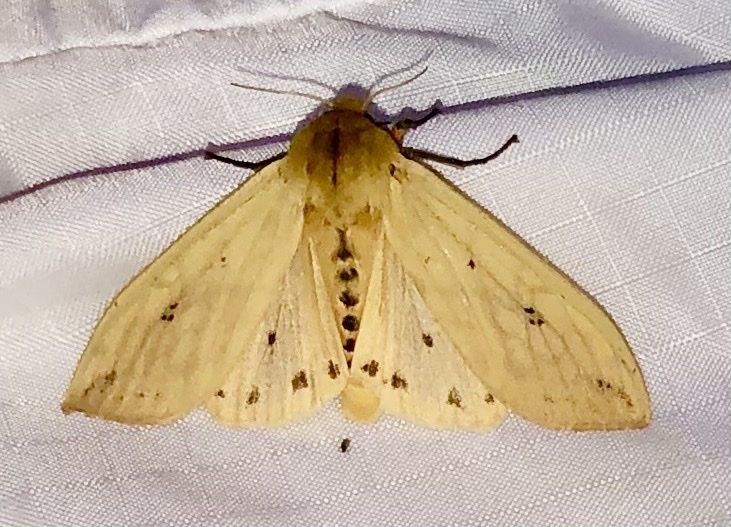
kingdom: Animalia
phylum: Arthropoda
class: Insecta
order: Lepidoptera
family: Erebidae
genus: Pyrrharctia
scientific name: Pyrrharctia isabella
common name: Isabella tiger moth
